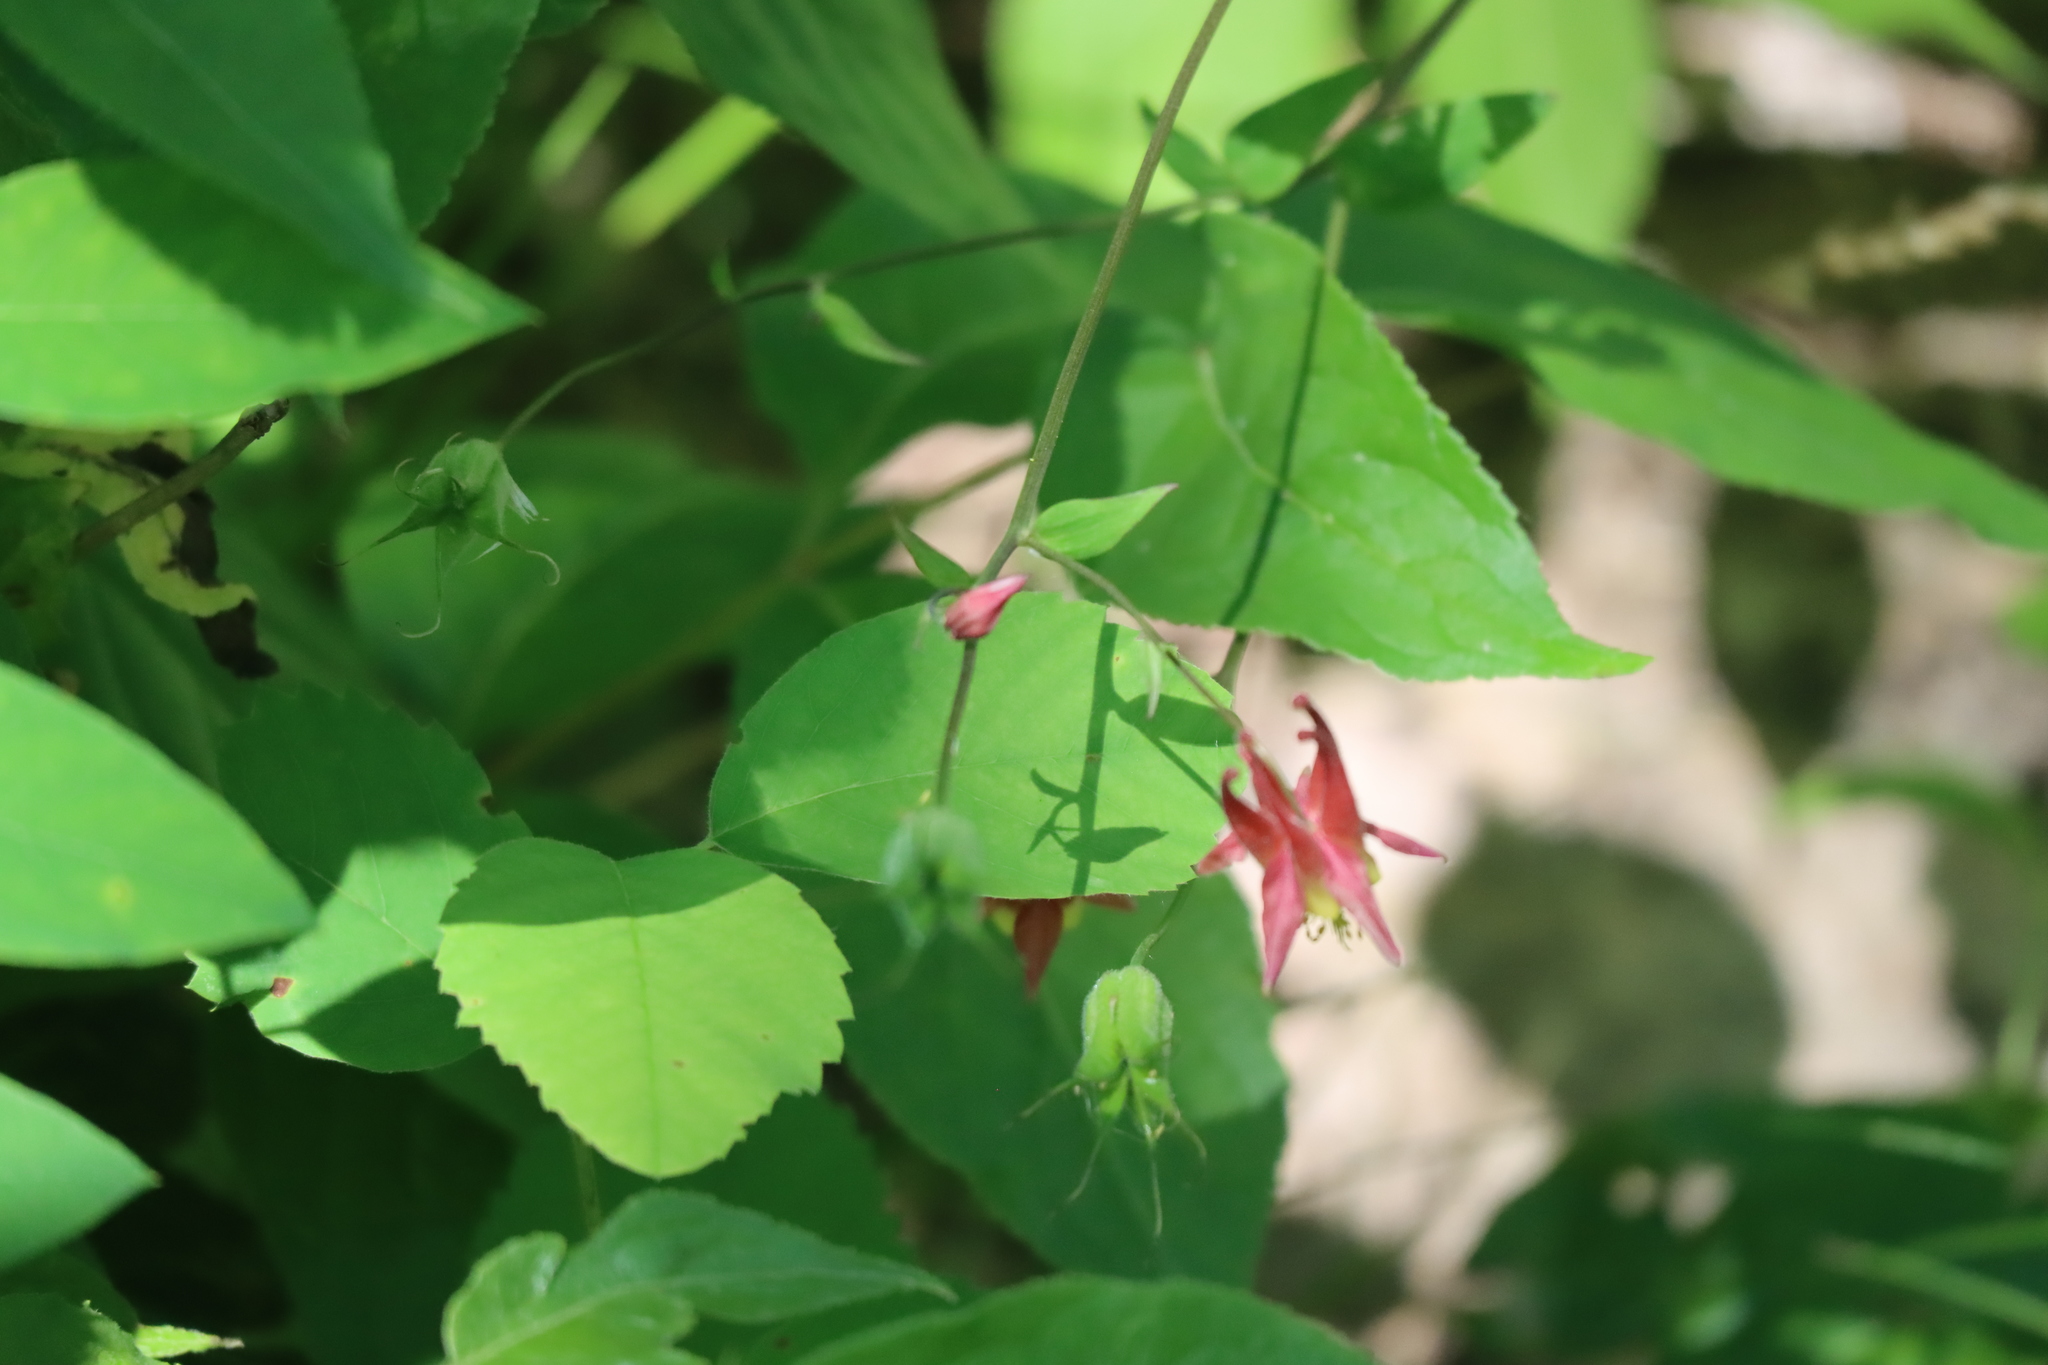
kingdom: Plantae
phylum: Tracheophyta
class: Magnoliopsida
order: Ranunculales
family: Ranunculaceae
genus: Aquilegia
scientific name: Aquilegia canadensis
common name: American columbine
